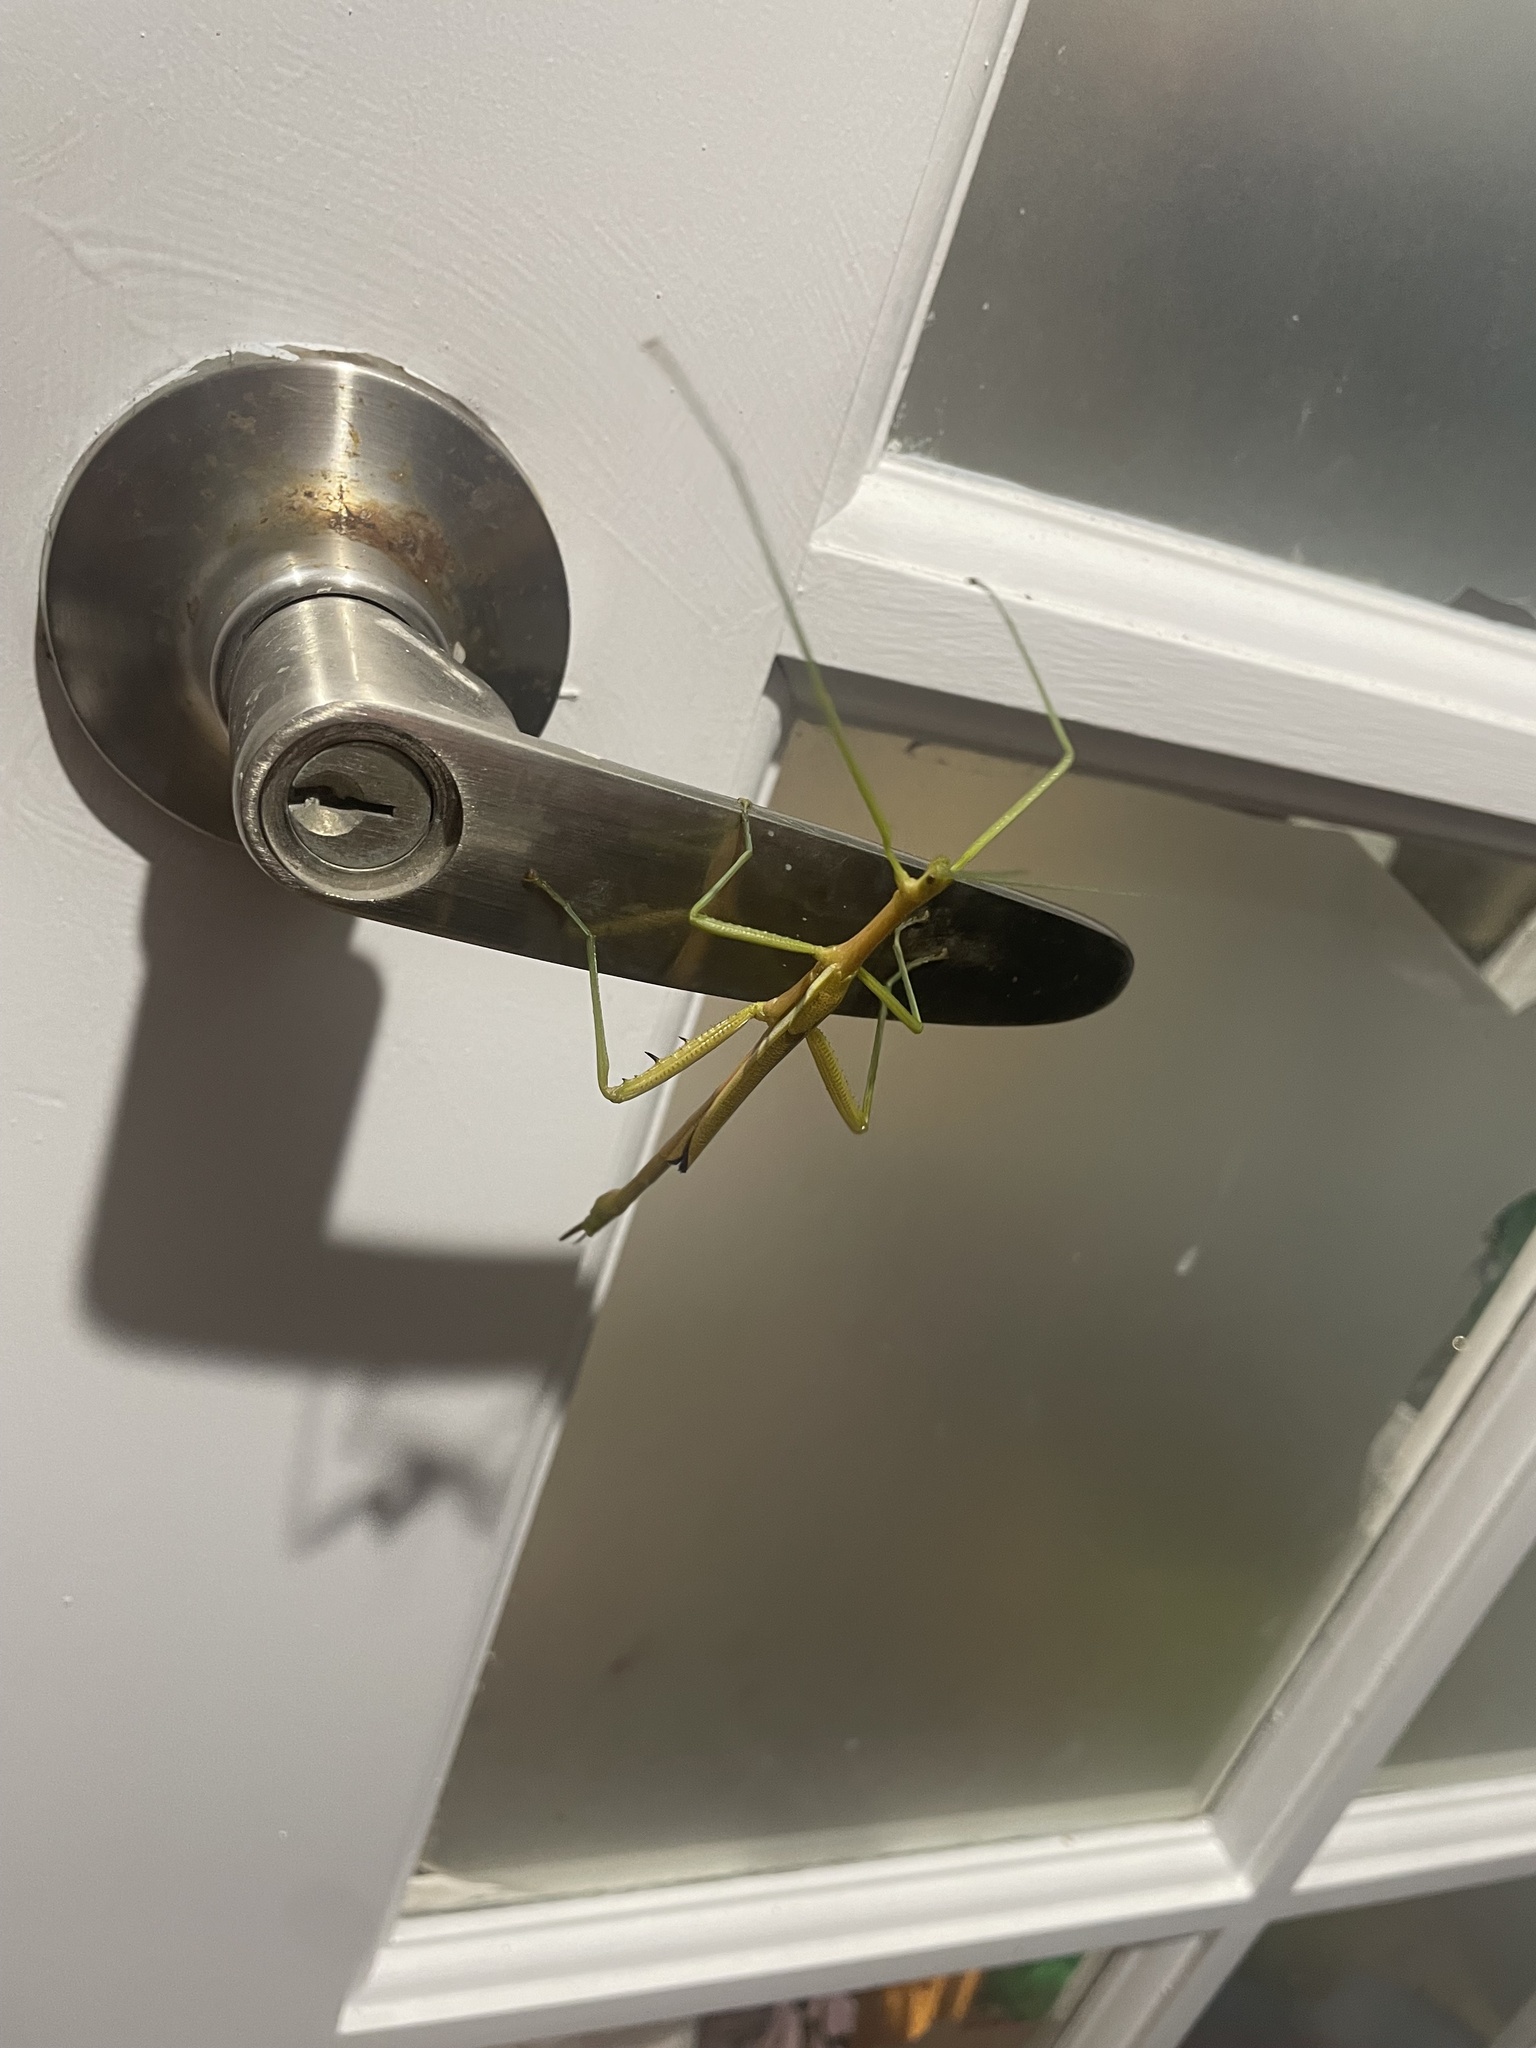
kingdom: Animalia
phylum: Arthropoda
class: Insecta
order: Phasmida
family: Phasmatidae
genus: Didymuria
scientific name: Didymuria violescens
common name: Spur-legged stick-insect
